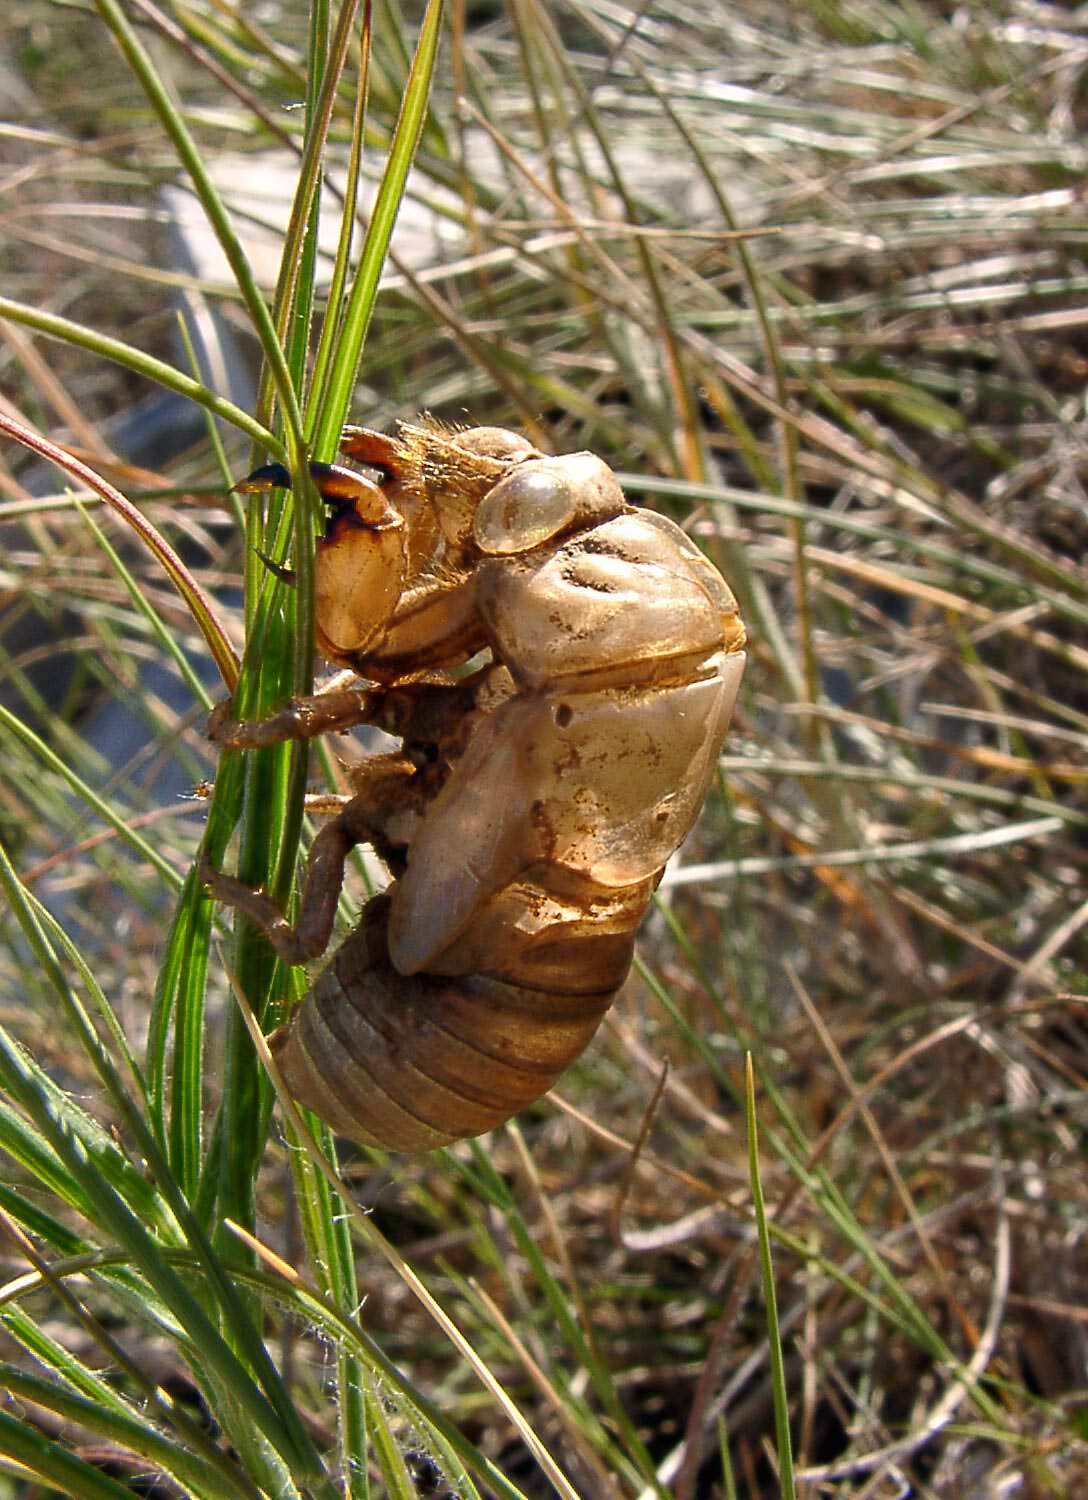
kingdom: Animalia
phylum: Arthropoda
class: Insecta
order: Hemiptera
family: Cicadidae
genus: Lyristes
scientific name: Lyristes plebejus
